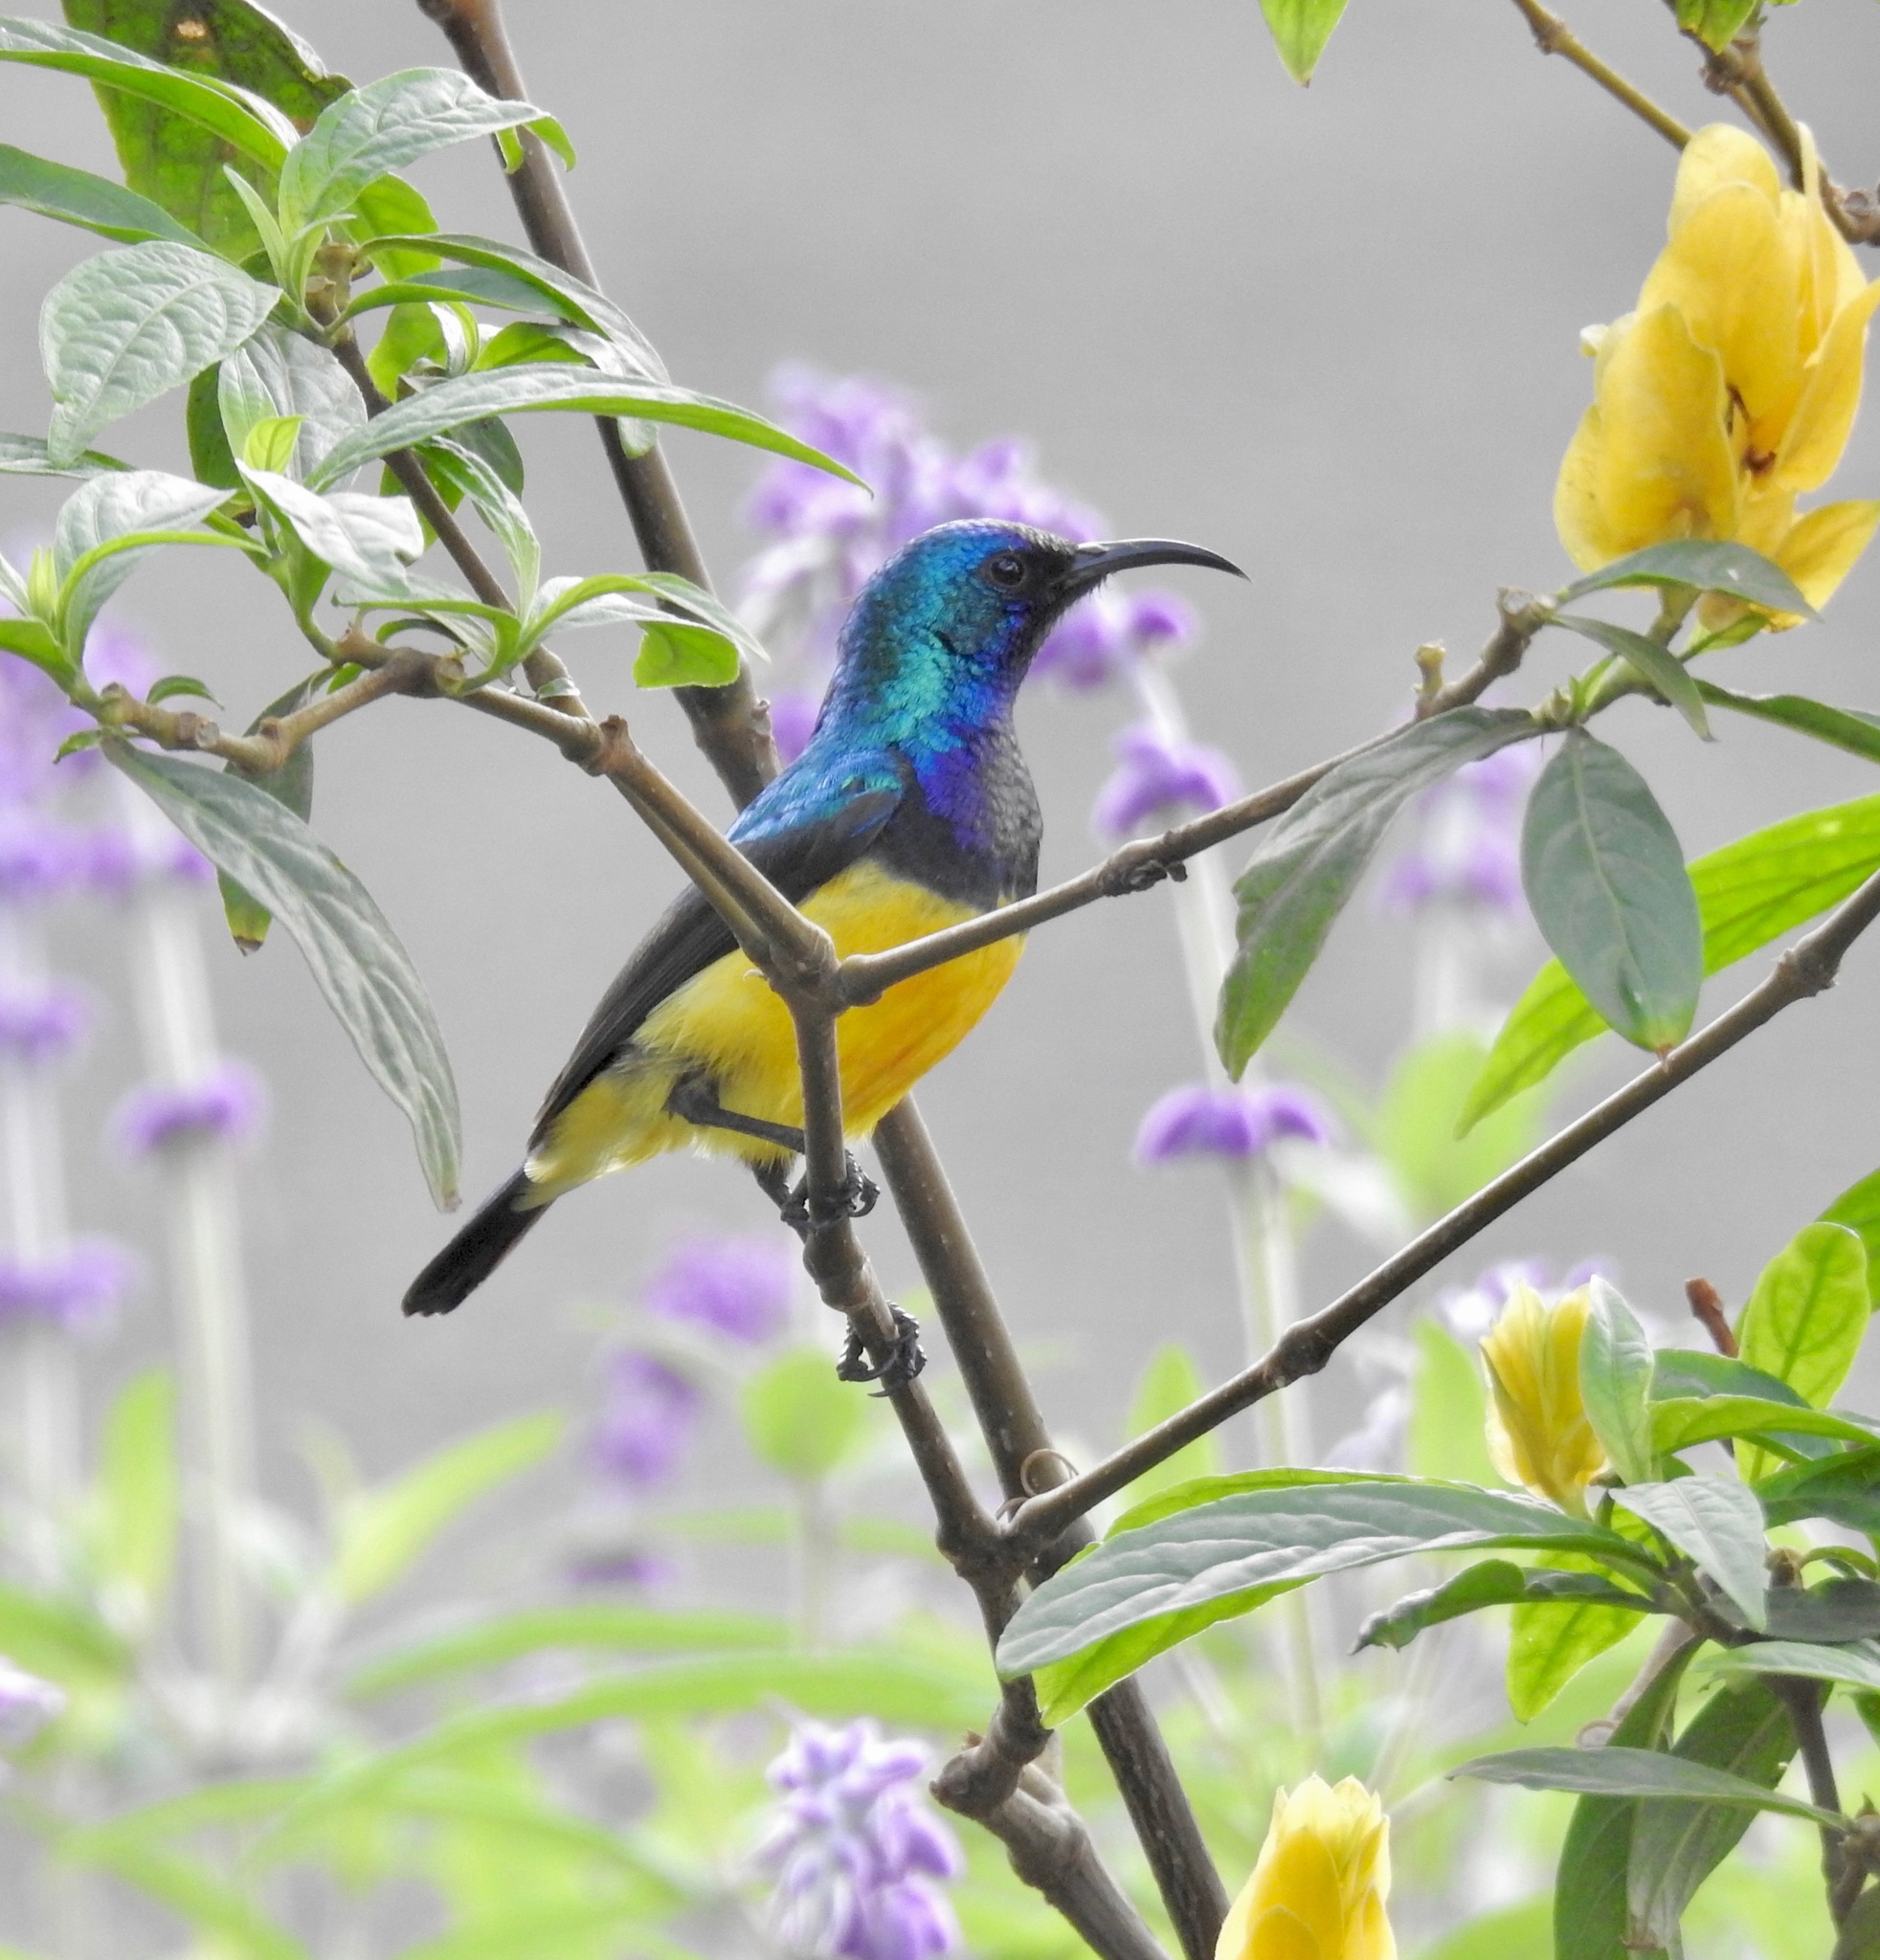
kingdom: Animalia
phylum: Chordata
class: Aves
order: Passeriformes
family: Nectariniidae
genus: Cinnyris
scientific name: Cinnyris venustus
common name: Variable sunbird
